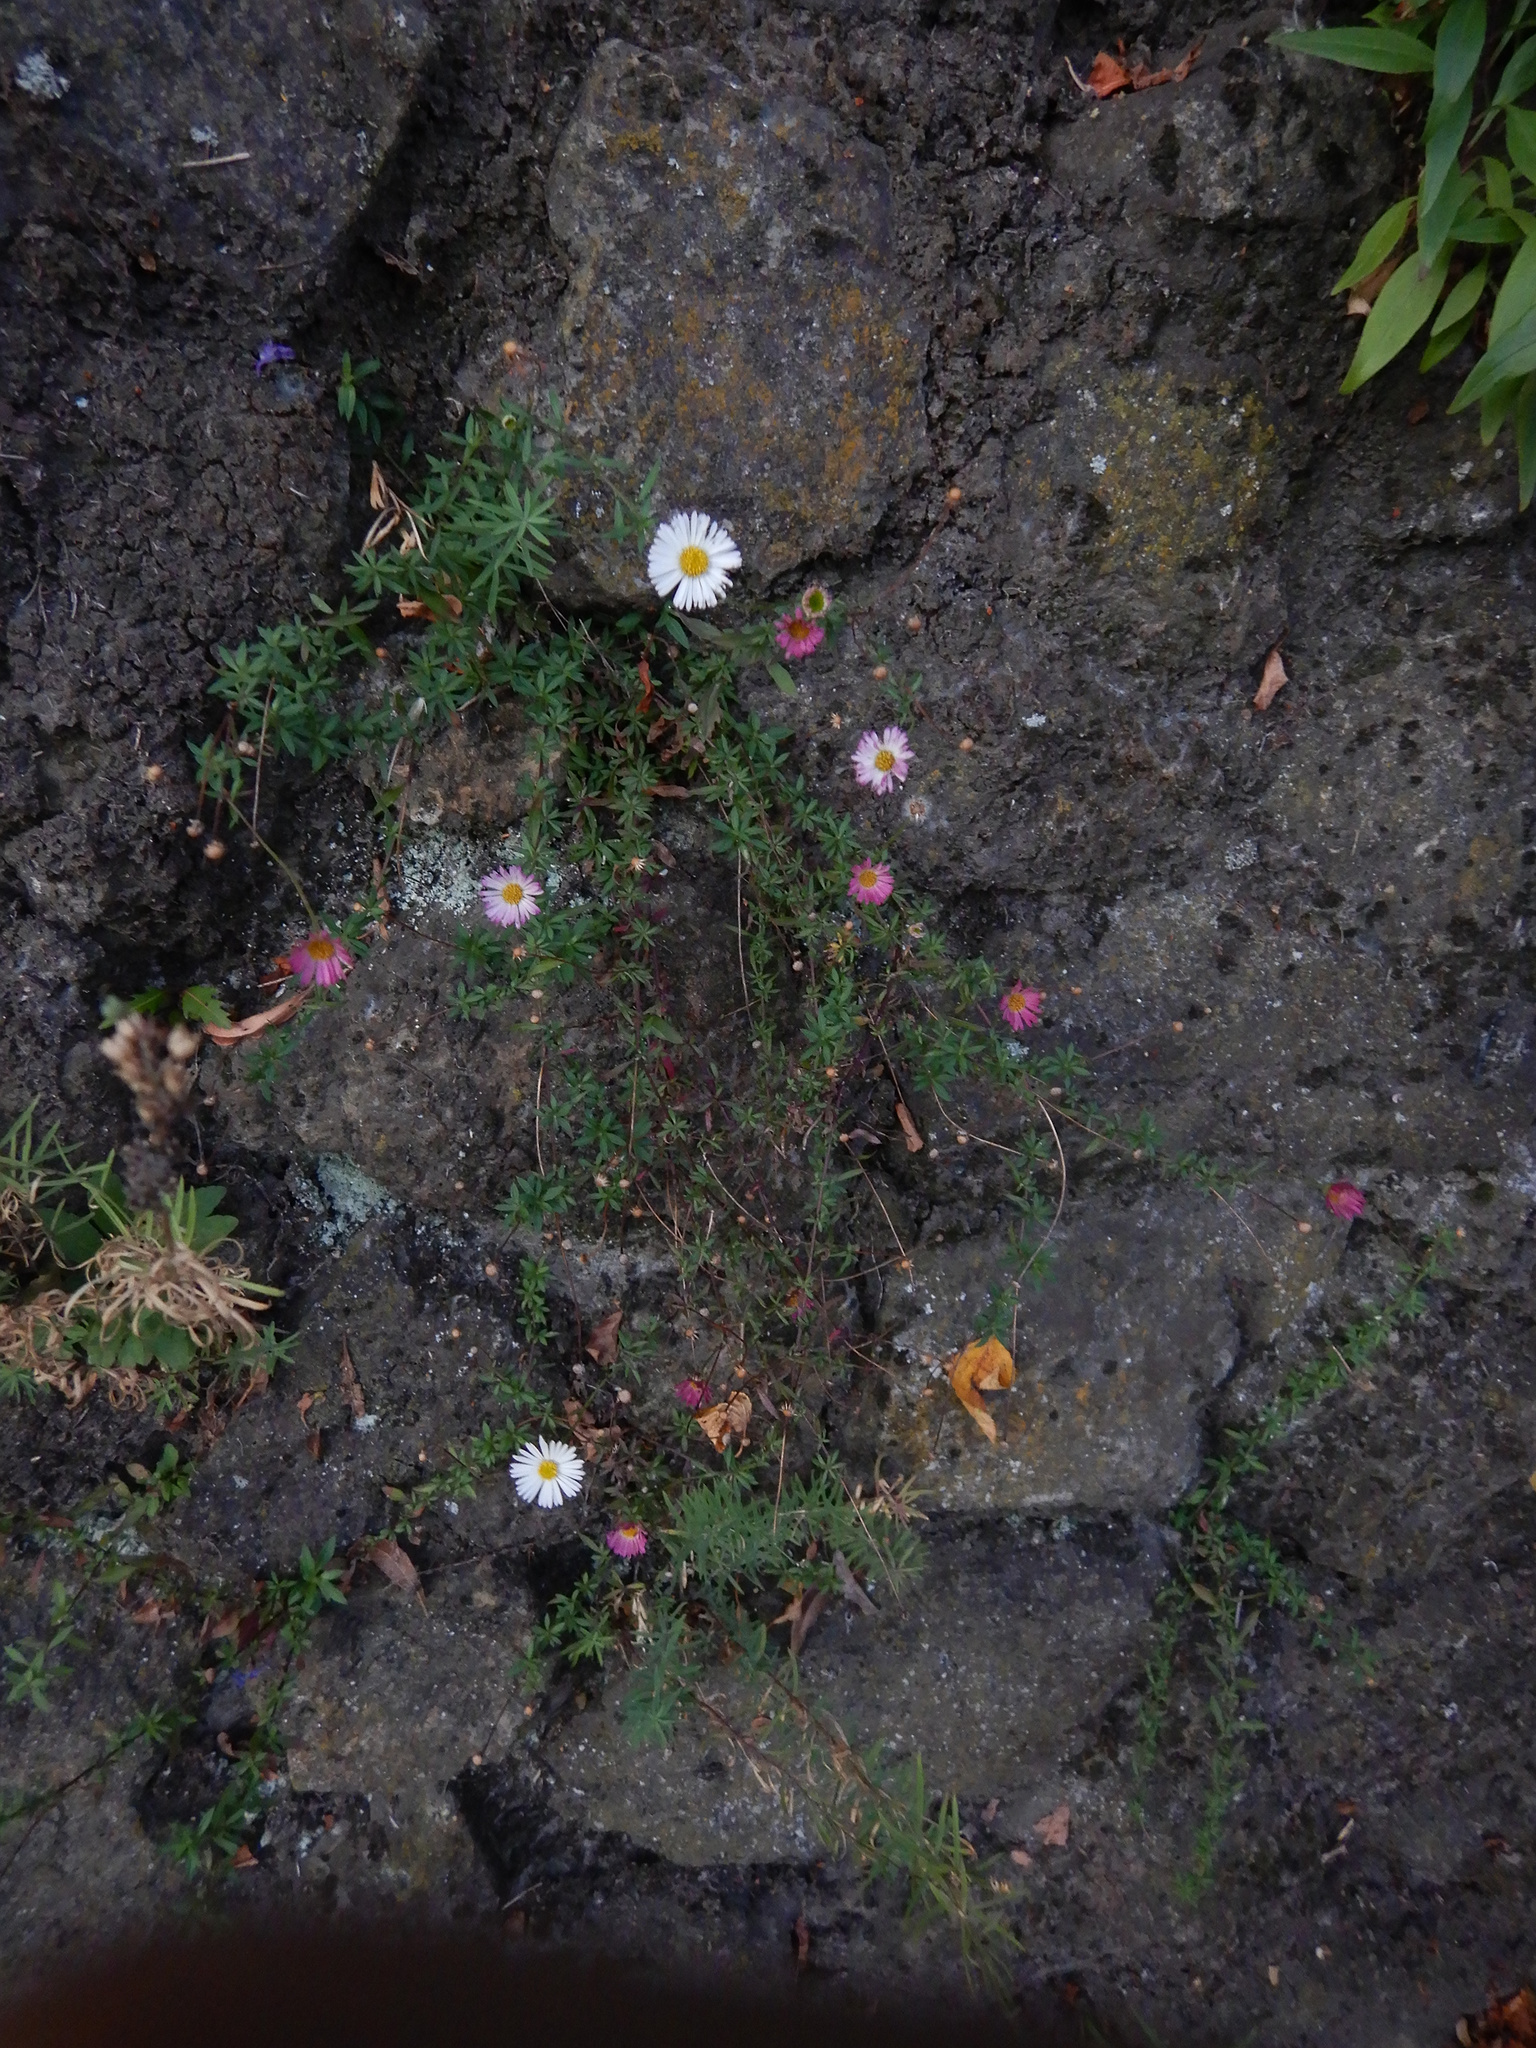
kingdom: Plantae
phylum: Tracheophyta
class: Magnoliopsida
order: Asterales
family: Asteraceae
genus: Erigeron
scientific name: Erigeron karvinskianus
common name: Mexican fleabane
